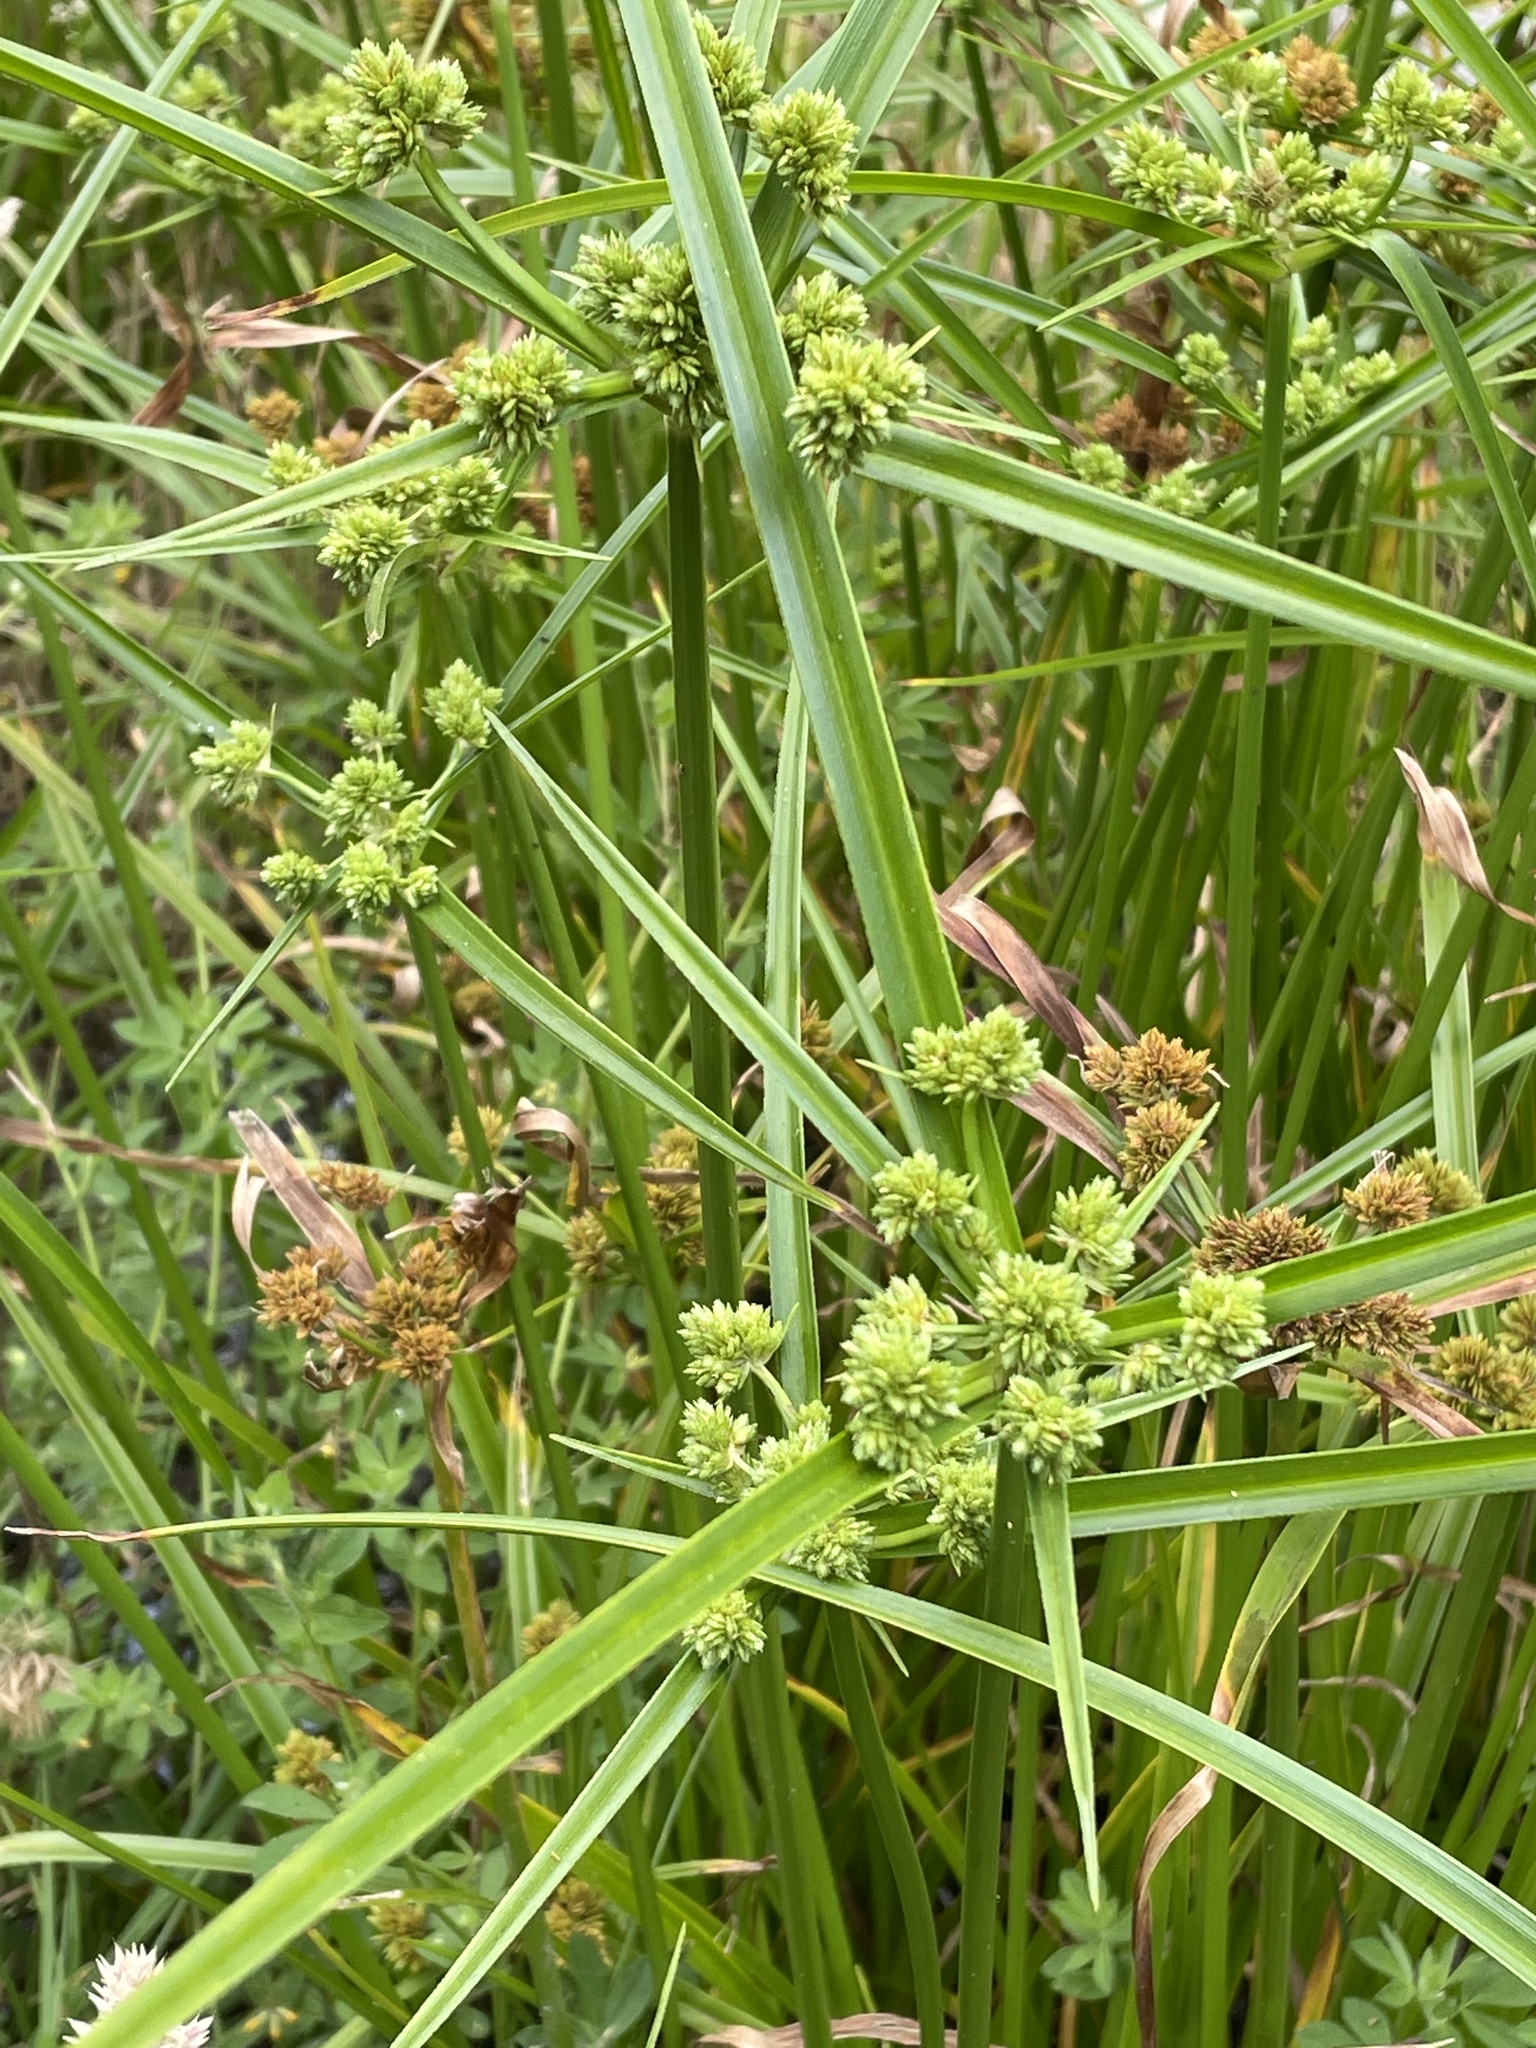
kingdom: Plantae
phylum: Tracheophyta
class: Liliopsida
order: Poales
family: Cyperaceae
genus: Cyperus
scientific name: Cyperus eragrostis
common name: Tall flatsedge
